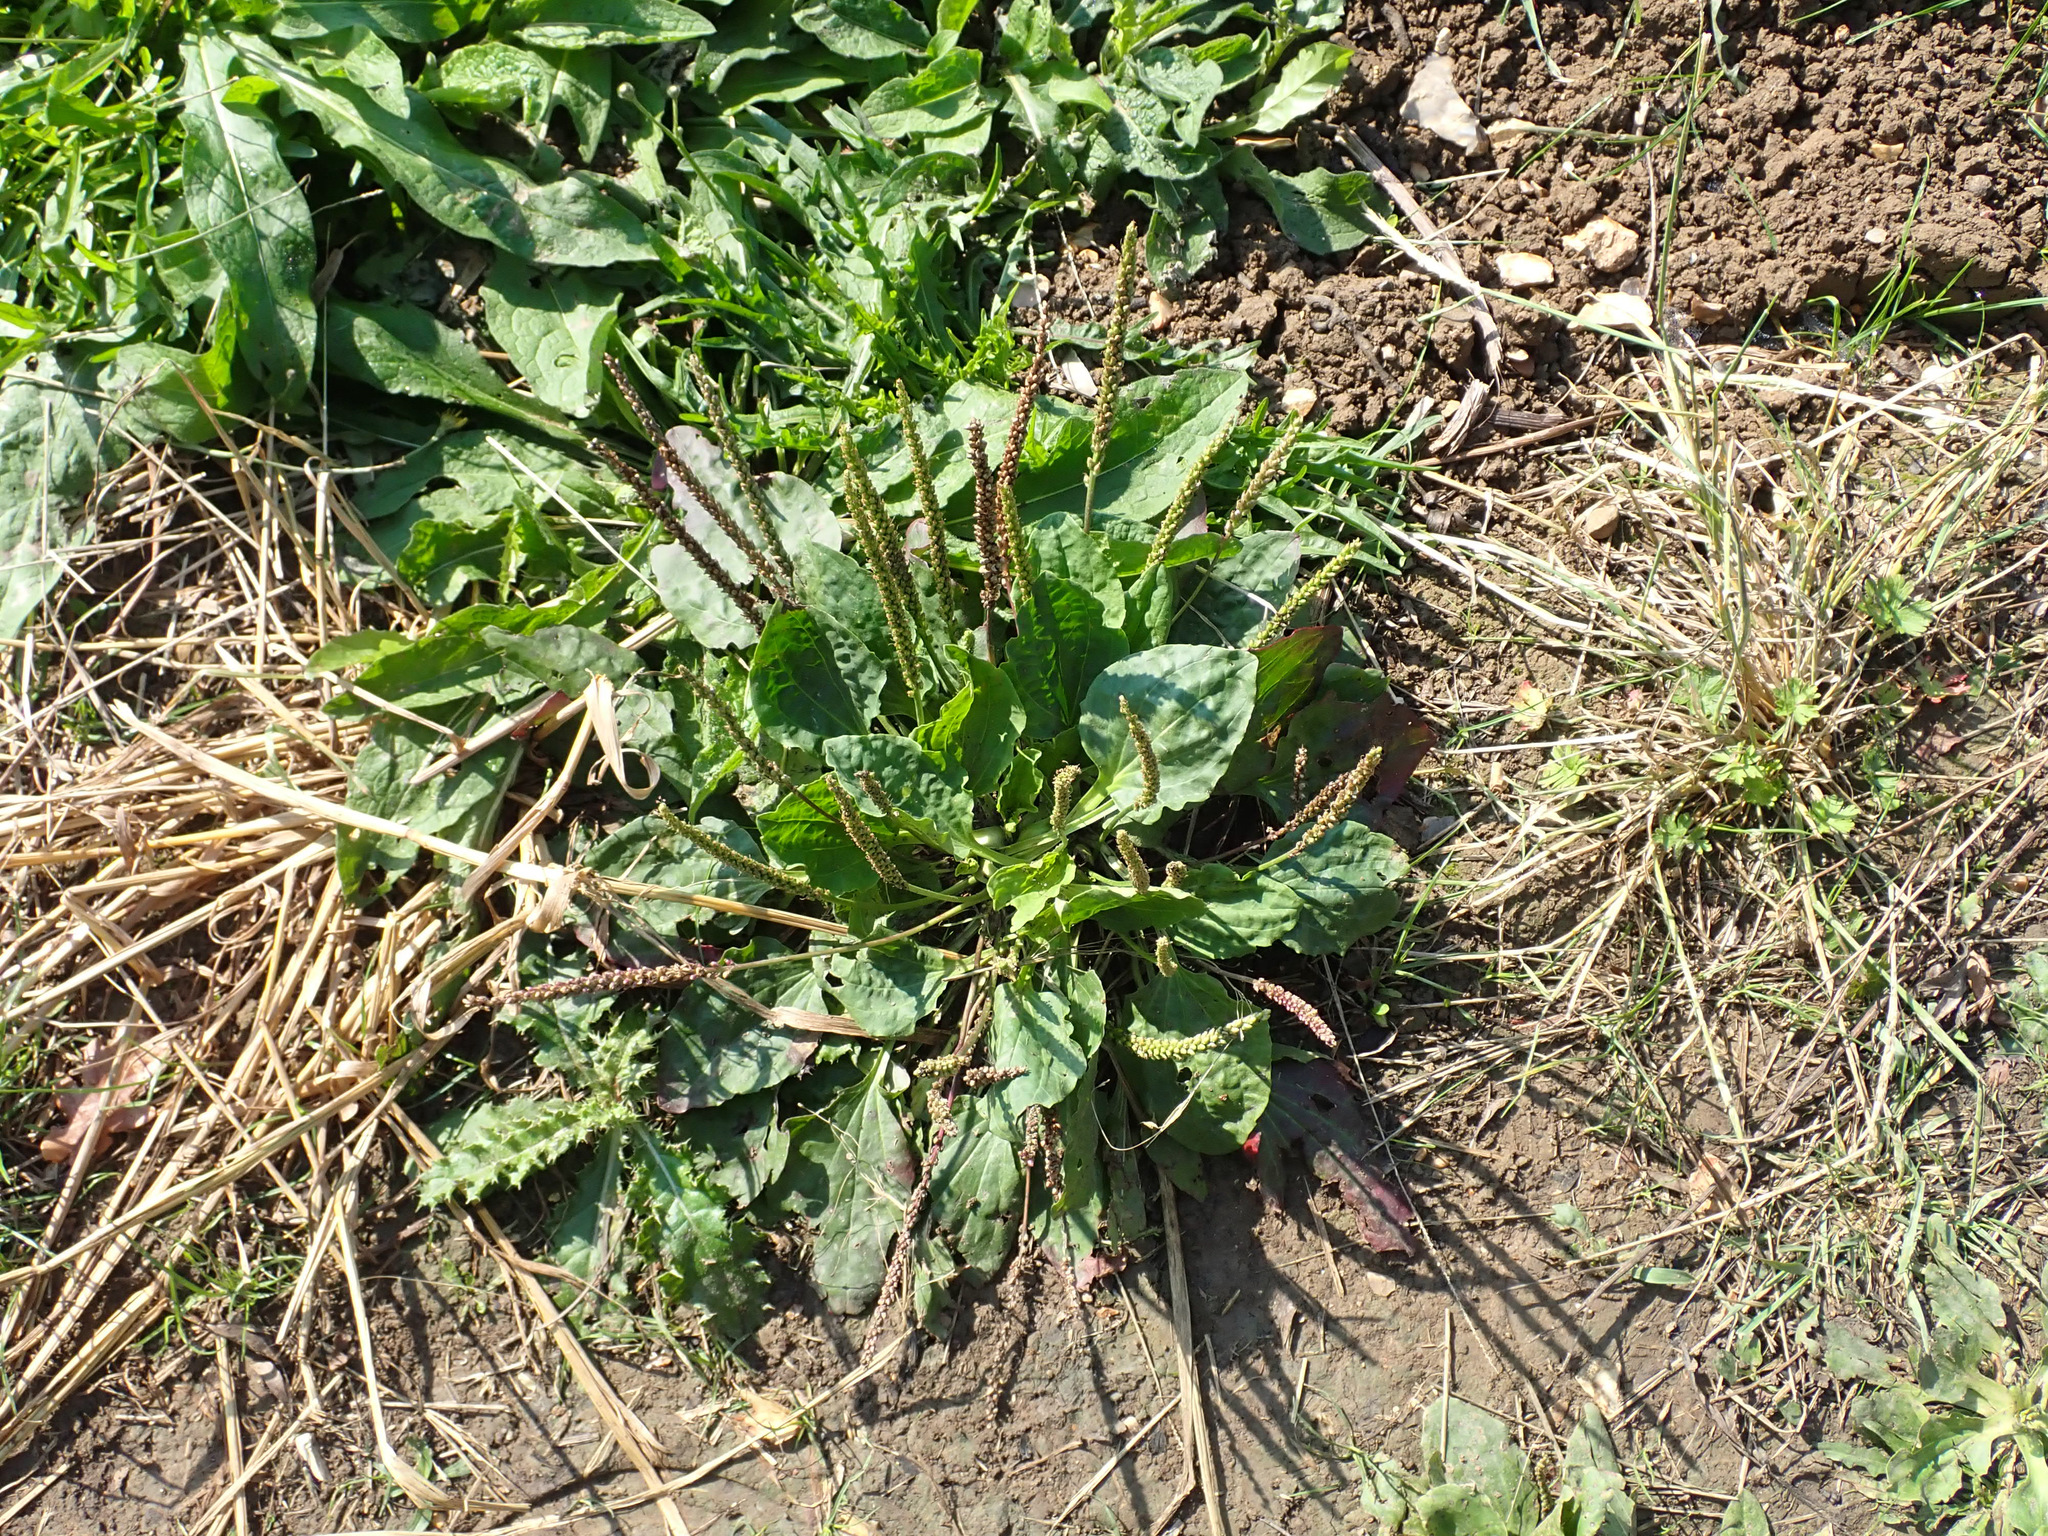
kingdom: Plantae
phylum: Tracheophyta
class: Magnoliopsida
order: Lamiales
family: Plantaginaceae
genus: Plantago
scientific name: Plantago major
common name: Common plantain
